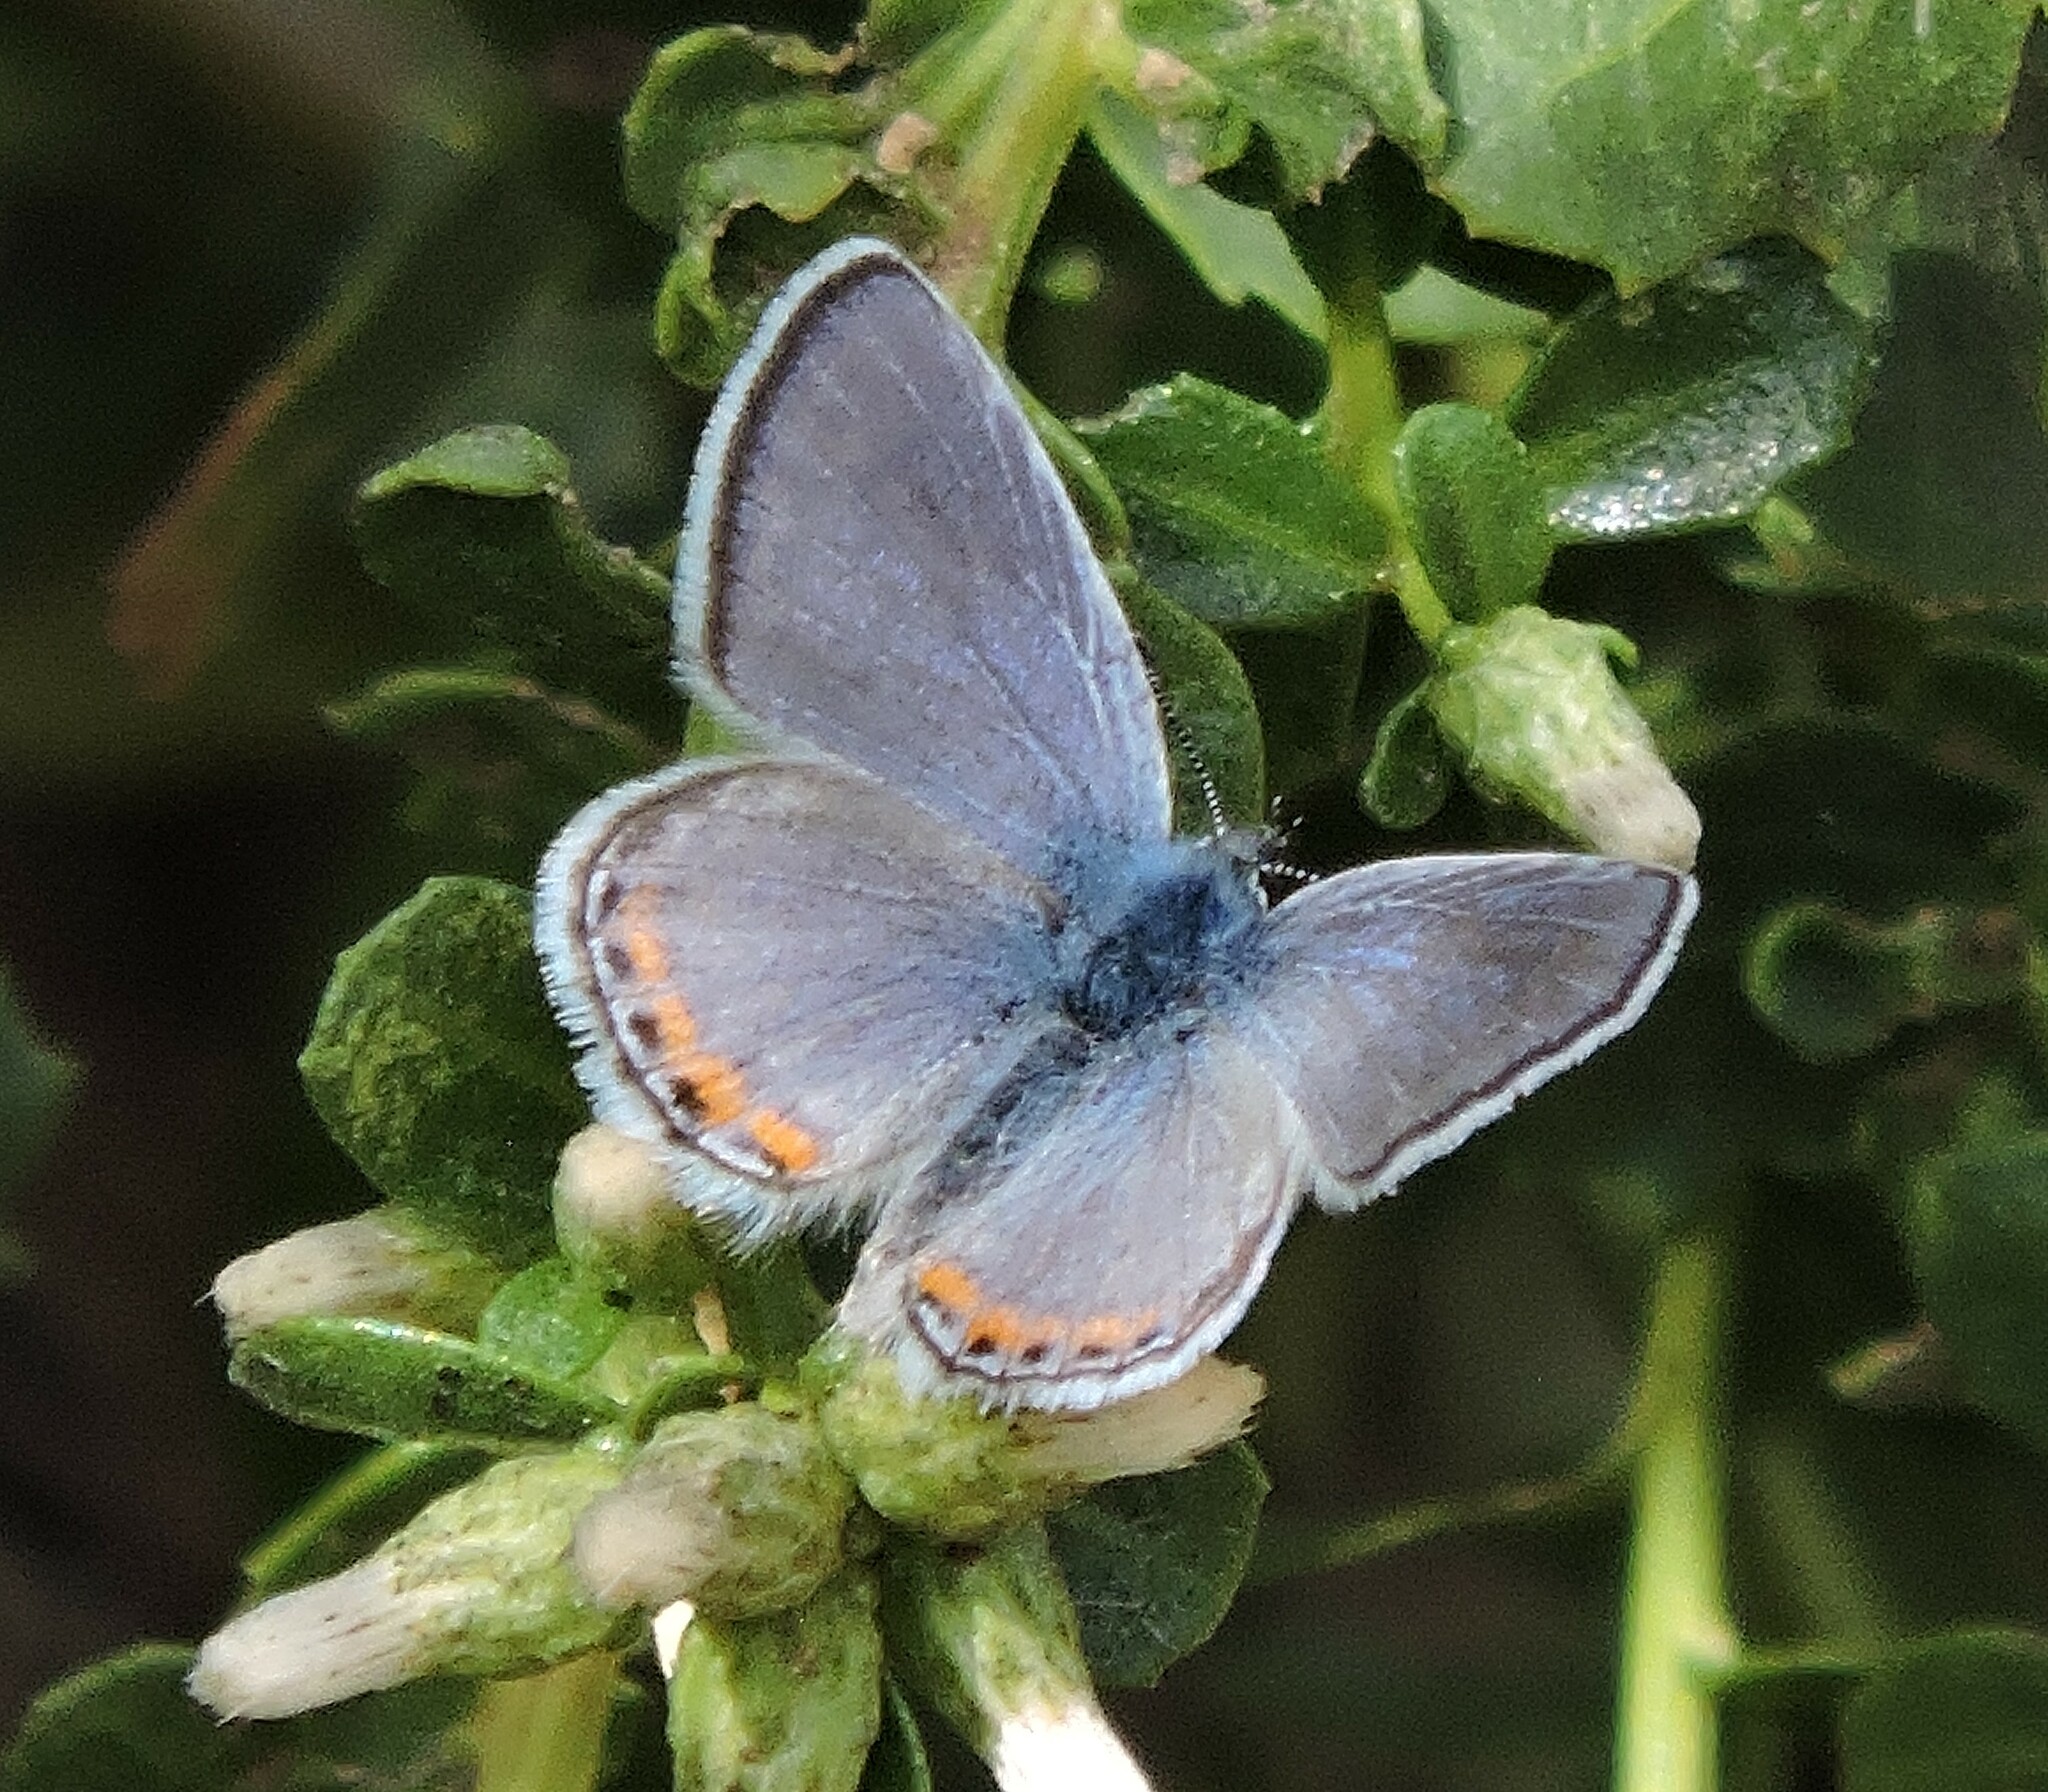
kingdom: Animalia
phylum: Arthropoda
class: Insecta
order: Lepidoptera
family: Lycaenidae
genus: Icaricia
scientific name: Icaricia acmon
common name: Acmon blue
